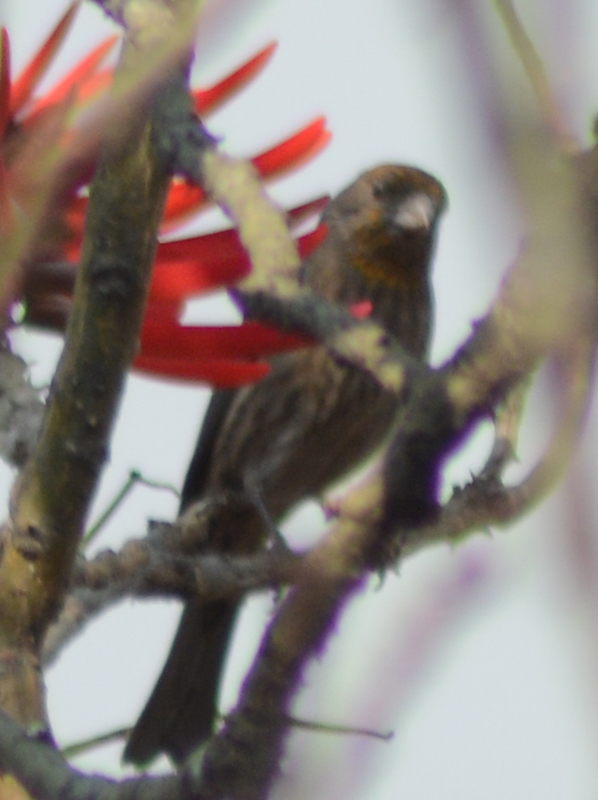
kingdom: Animalia
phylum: Chordata
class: Aves
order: Passeriformes
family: Fringillidae
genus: Haemorhous
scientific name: Haemorhous mexicanus
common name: House finch
